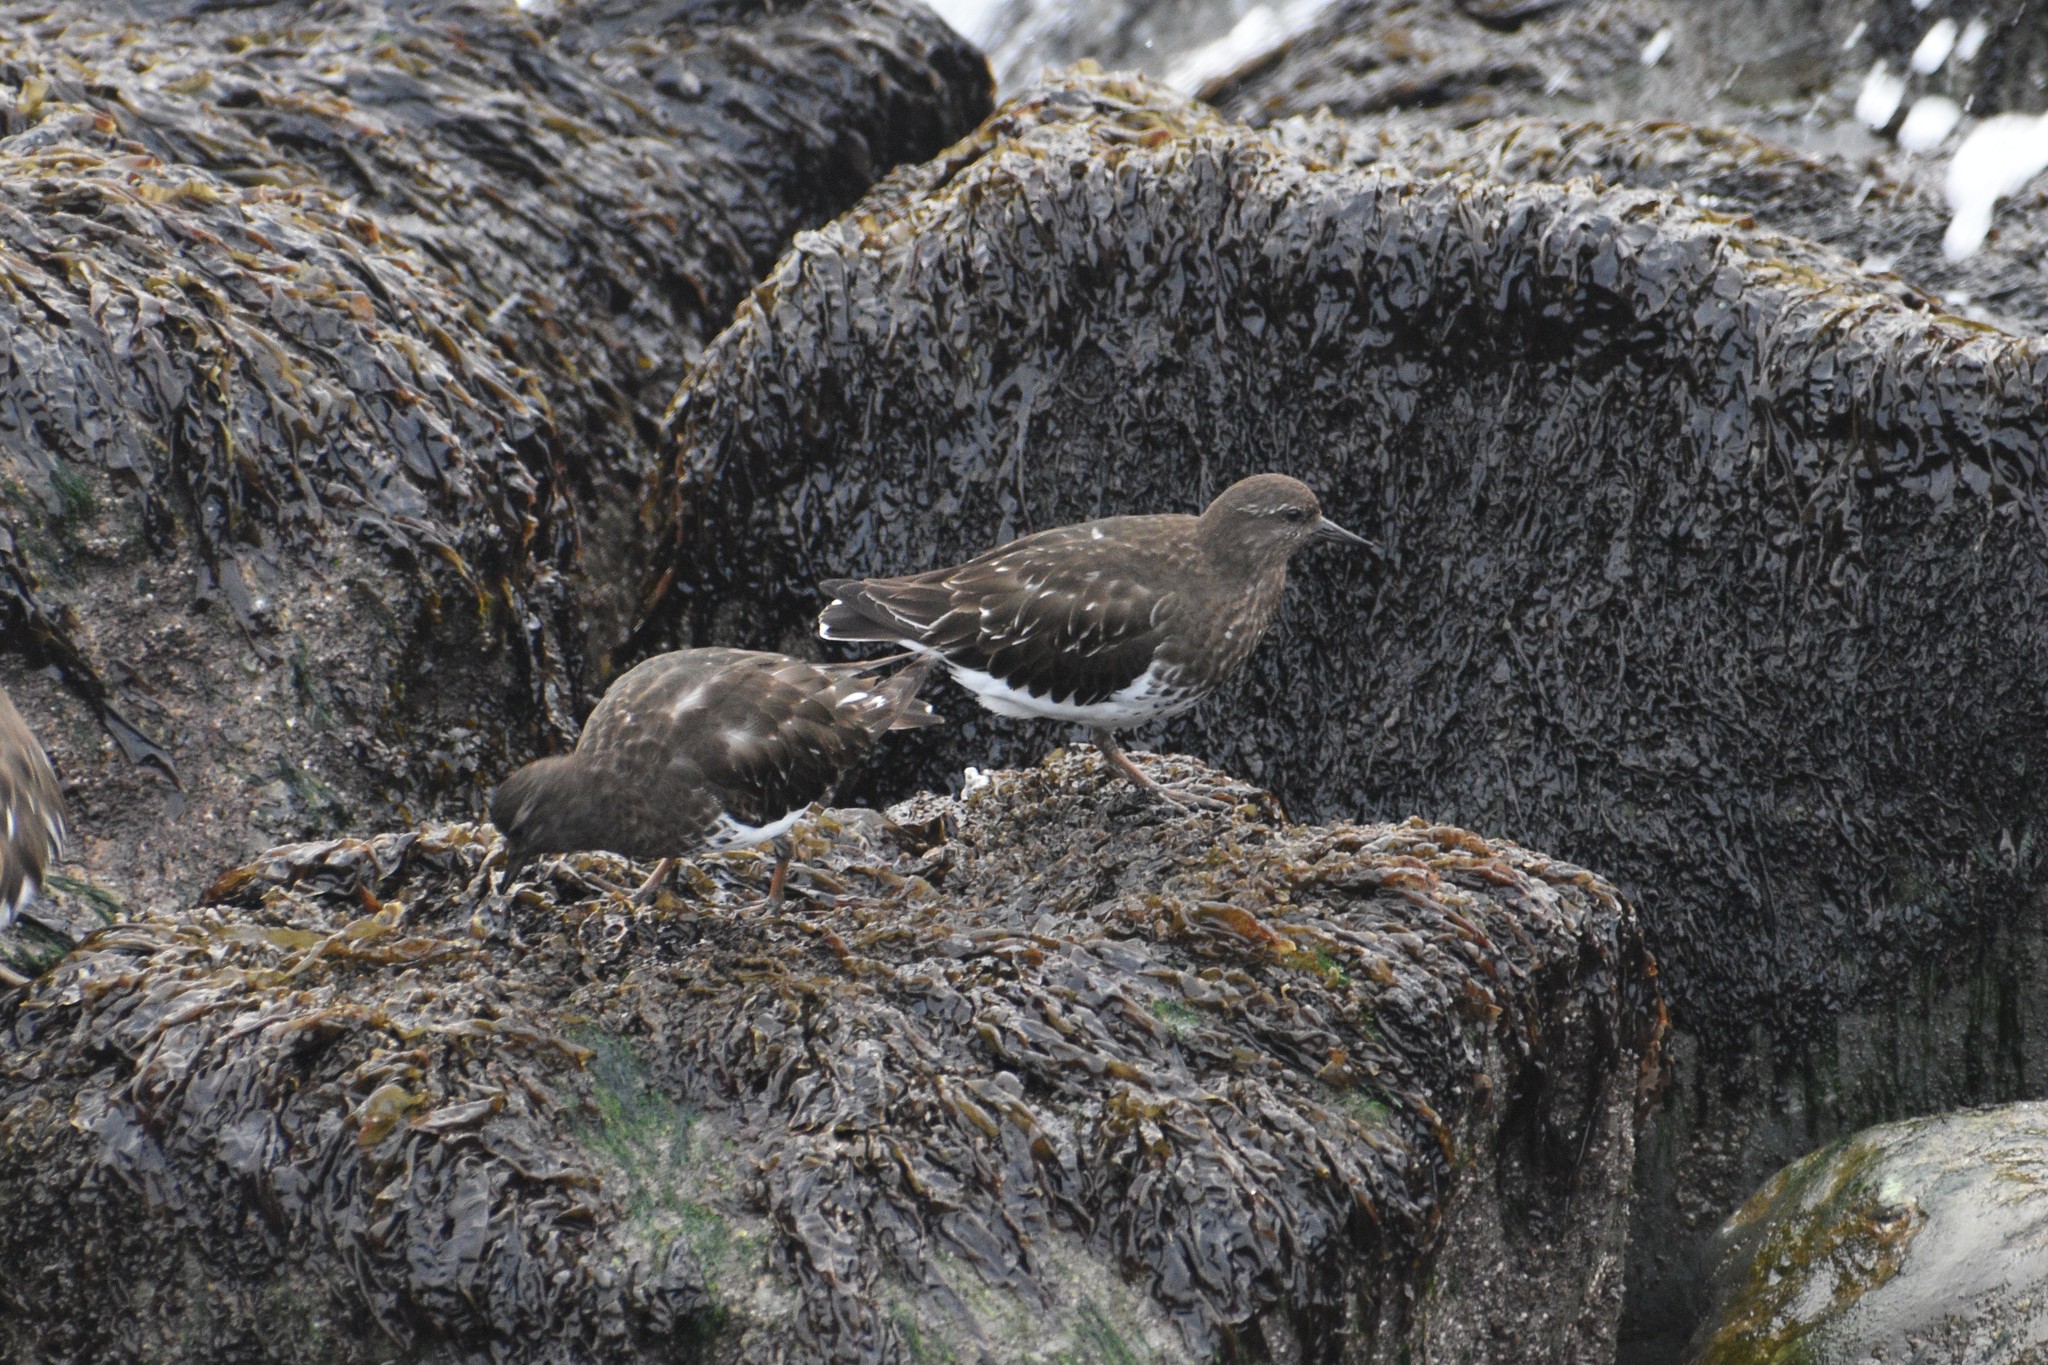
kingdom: Animalia
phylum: Chordata
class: Aves
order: Charadriiformes
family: Scolopacidae
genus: Arenaria
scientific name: Arenaria melanocephala
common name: Black turnstone
